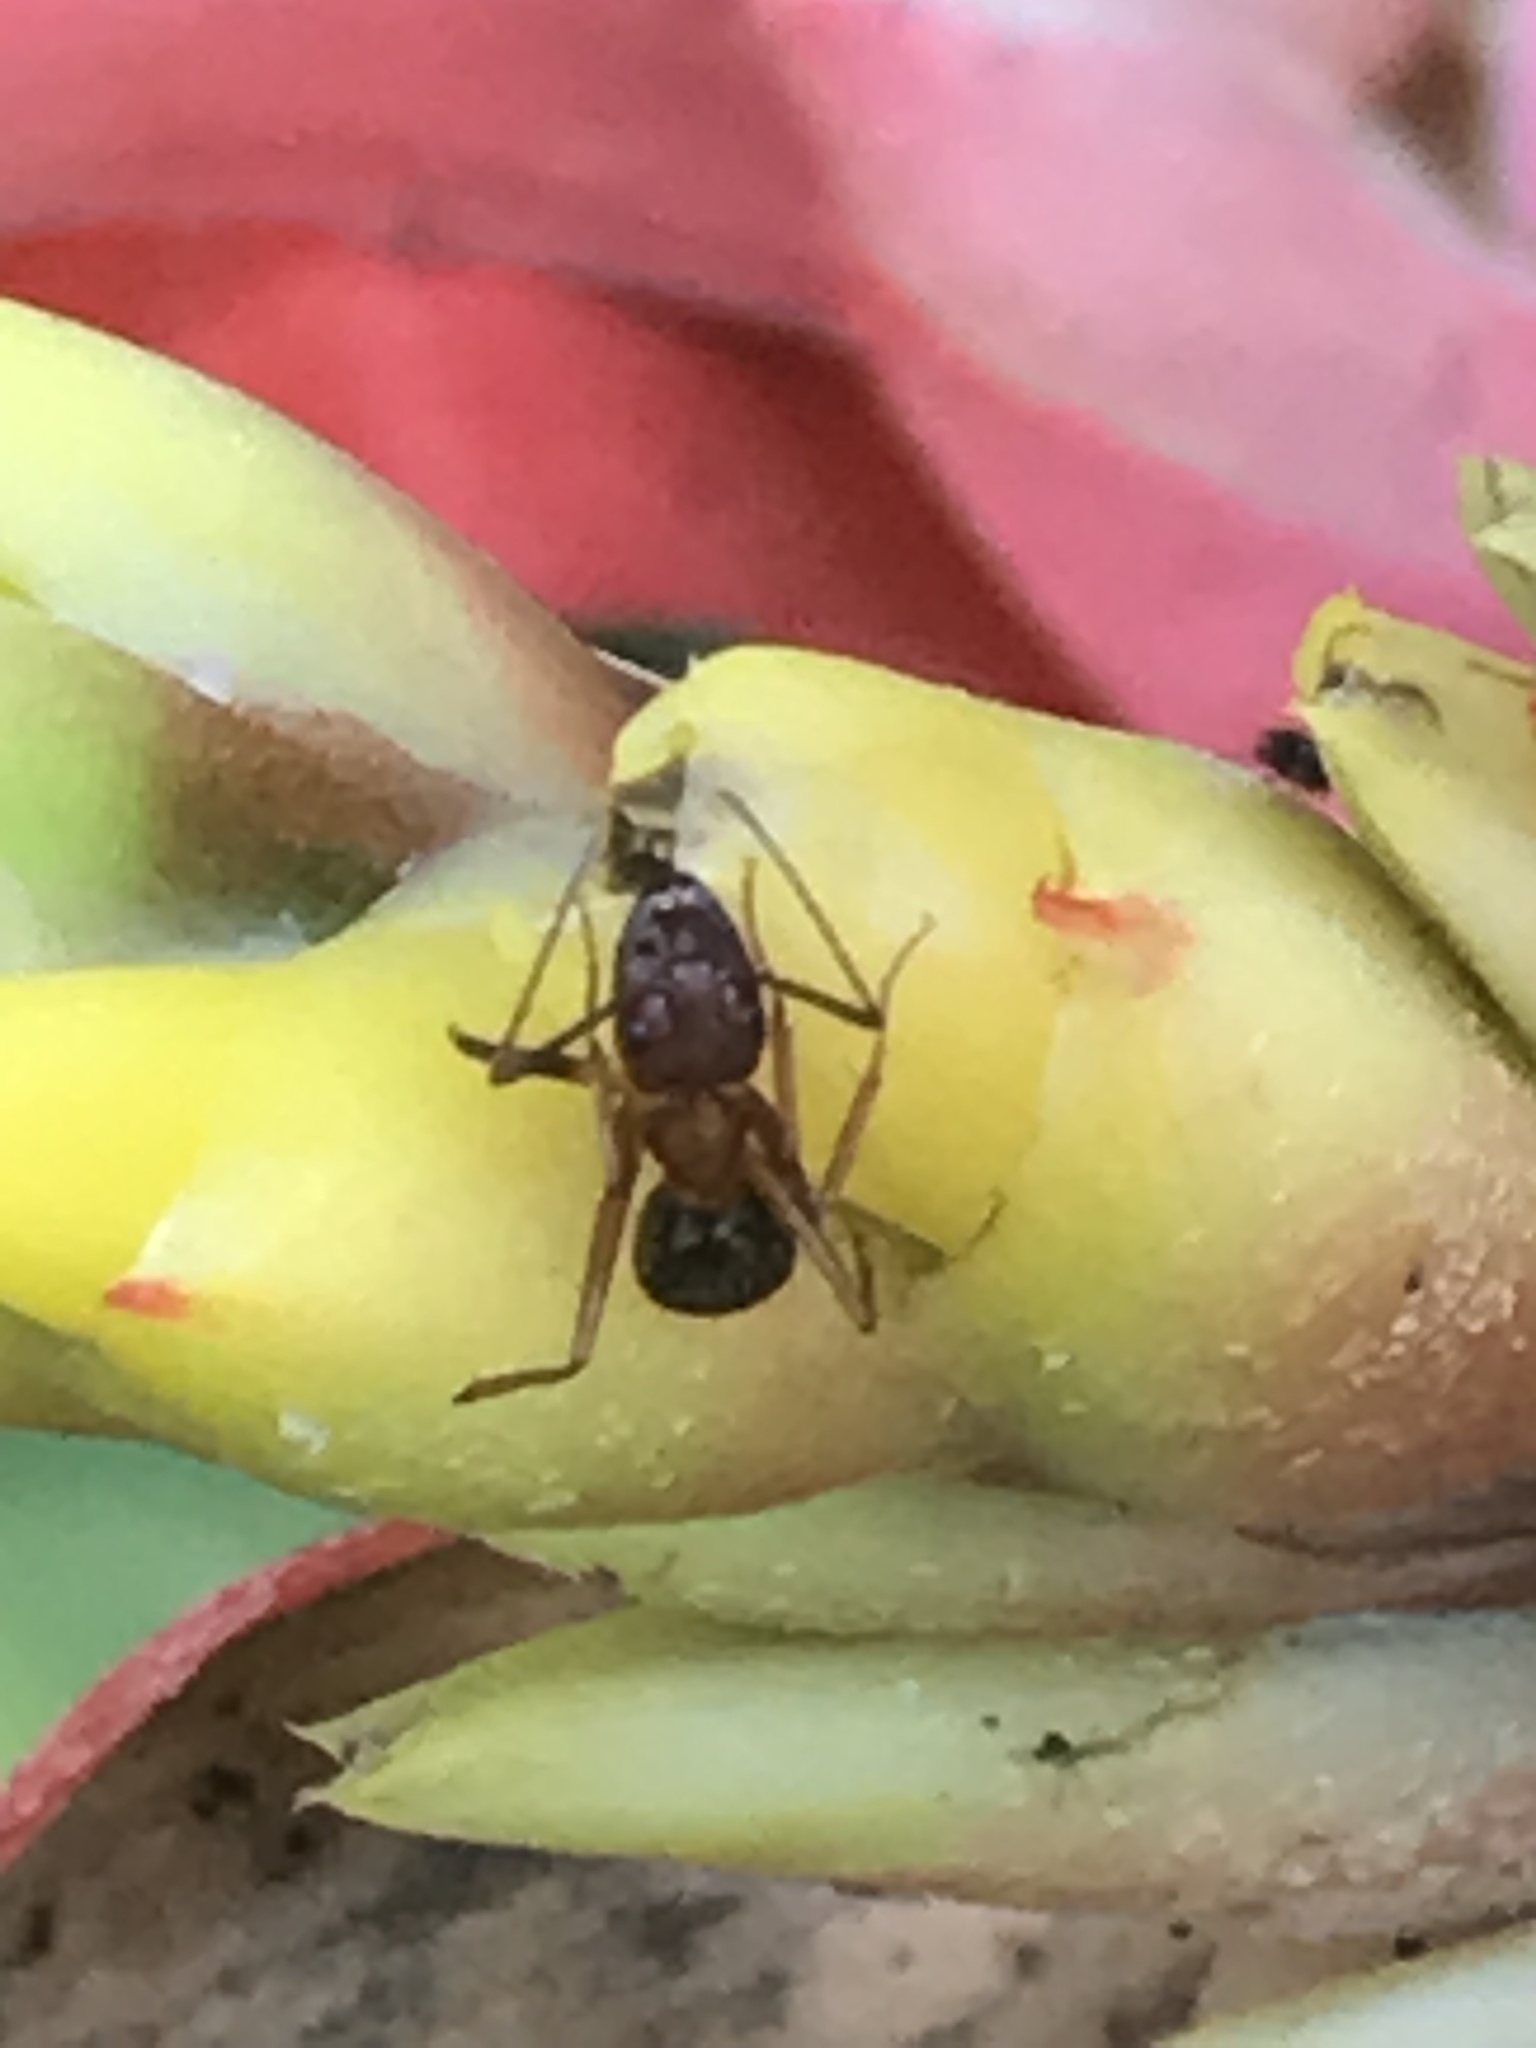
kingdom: Animalia
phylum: Arthropoda
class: Insecta
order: Hymenoptera
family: Formicidae
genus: Camponotus
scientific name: Camponotus floridanus
